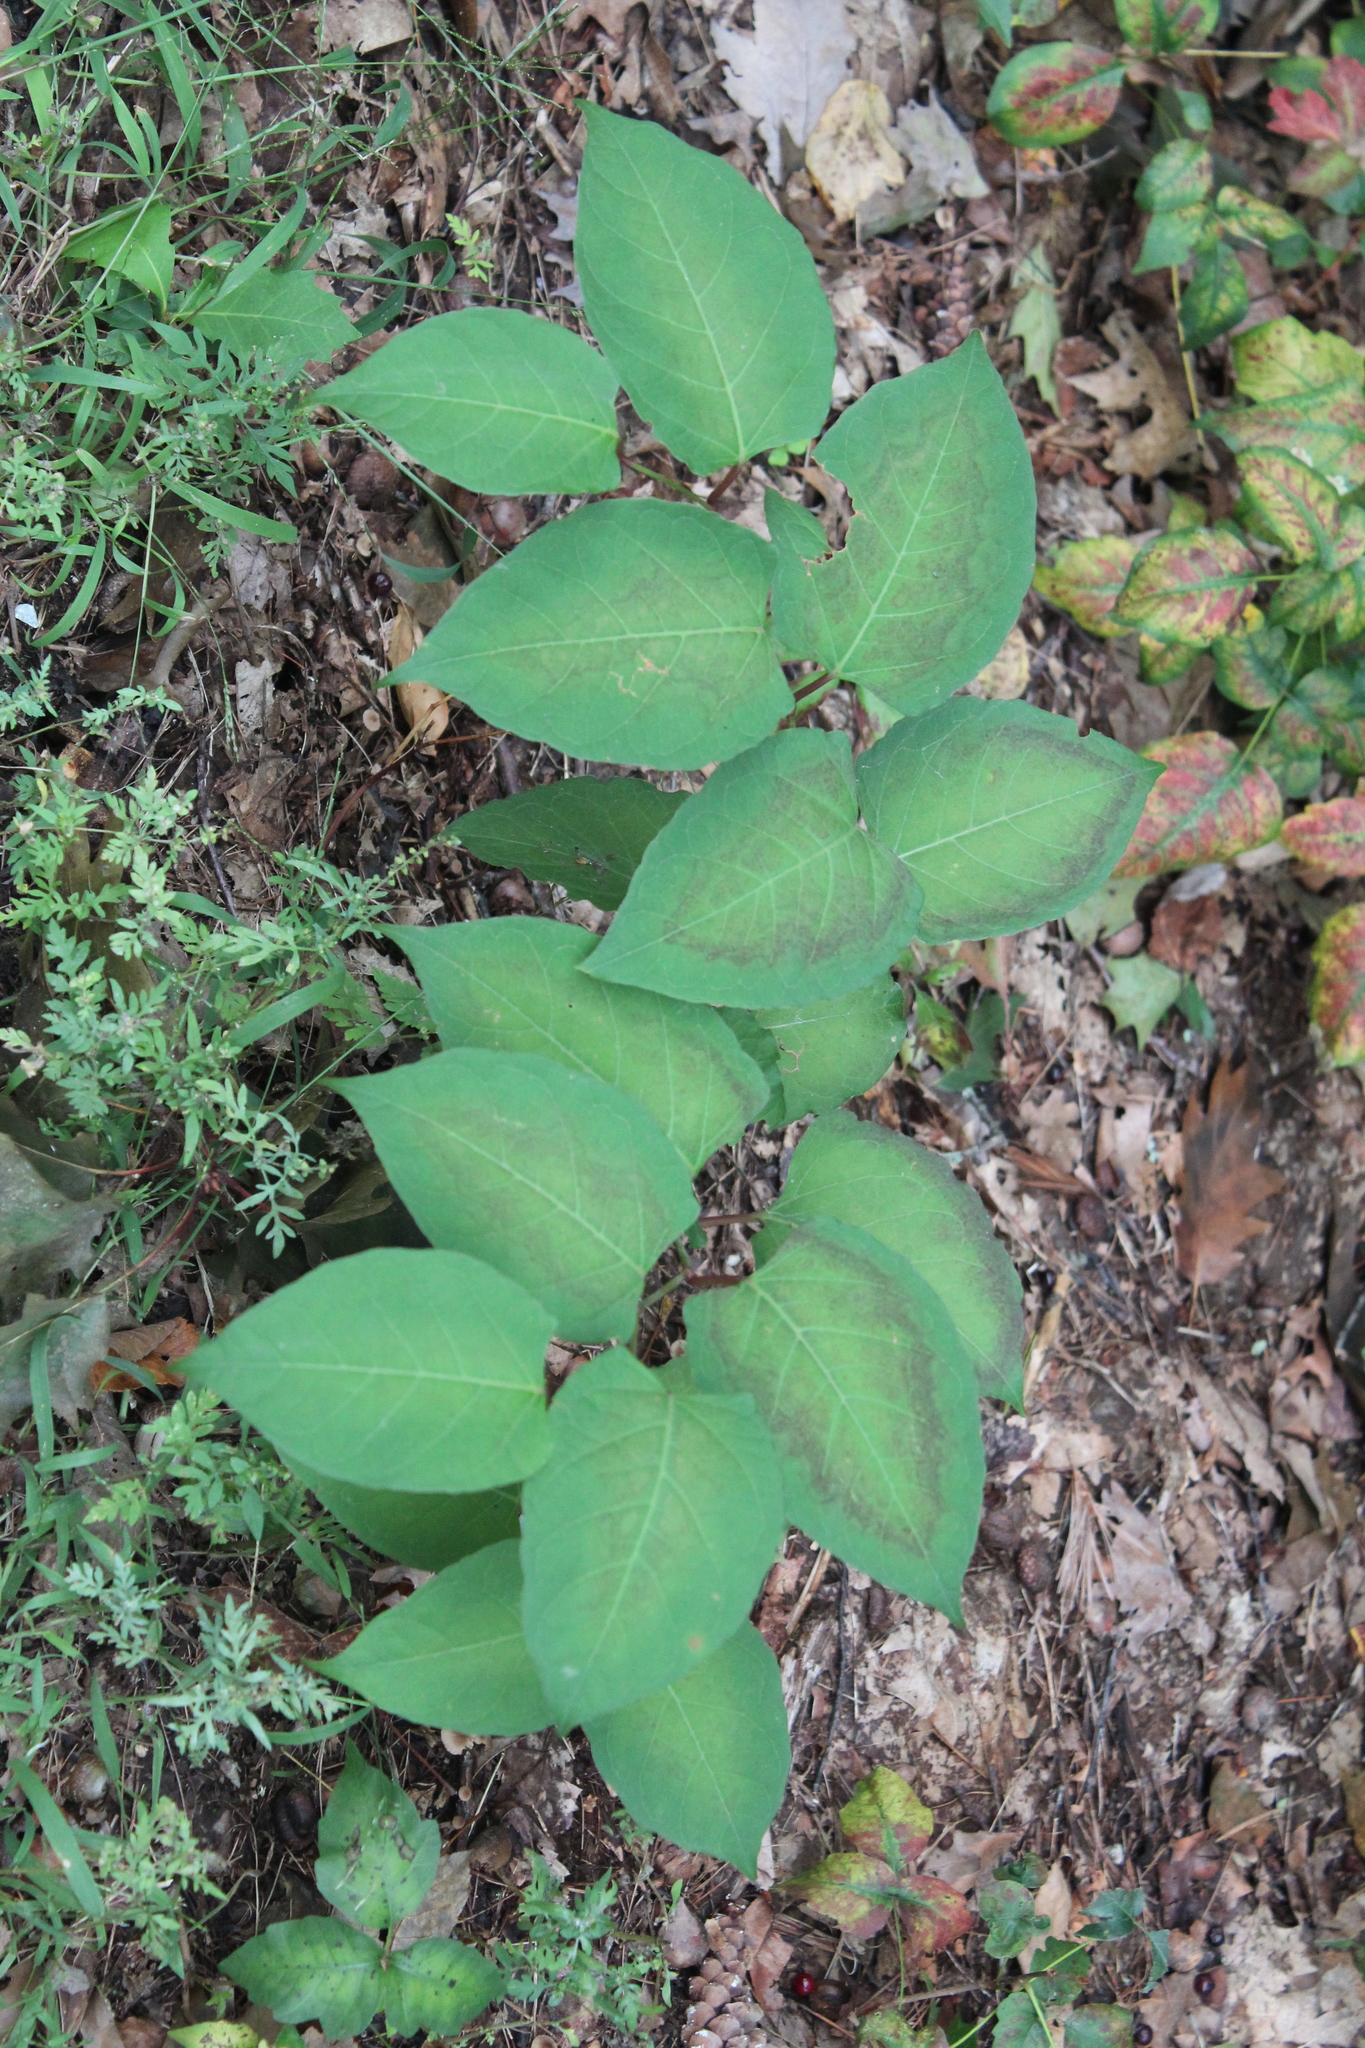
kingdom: Plantae
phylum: Tracheophyta
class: Magnoliopsida
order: Caryophyllales
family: Polygonaceae
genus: Reynoutria
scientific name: Reynoutria japonica
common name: Japanese knotweed
